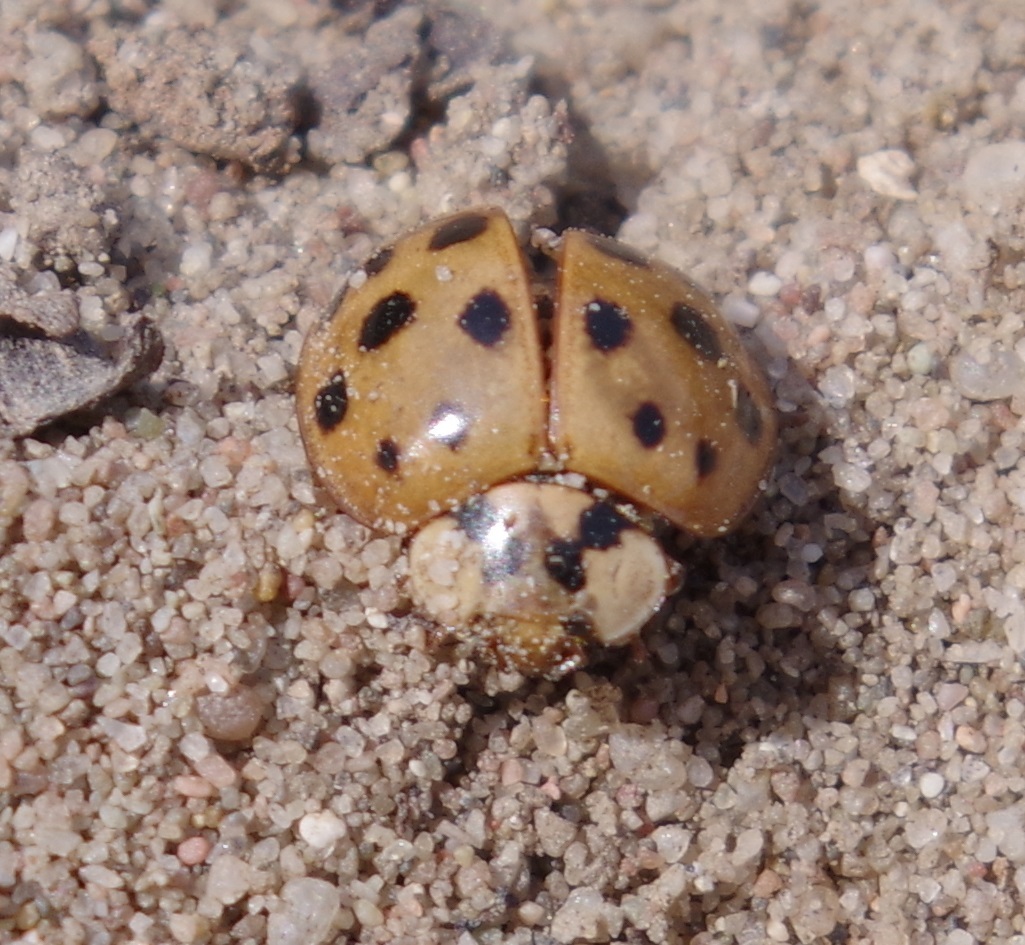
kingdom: Animalia
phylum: Arthropoda
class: Insecta
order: Coleoptera
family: Coccinellidae
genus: Harmonia
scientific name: Harmonia axyridis
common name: Harlequin ladybird
